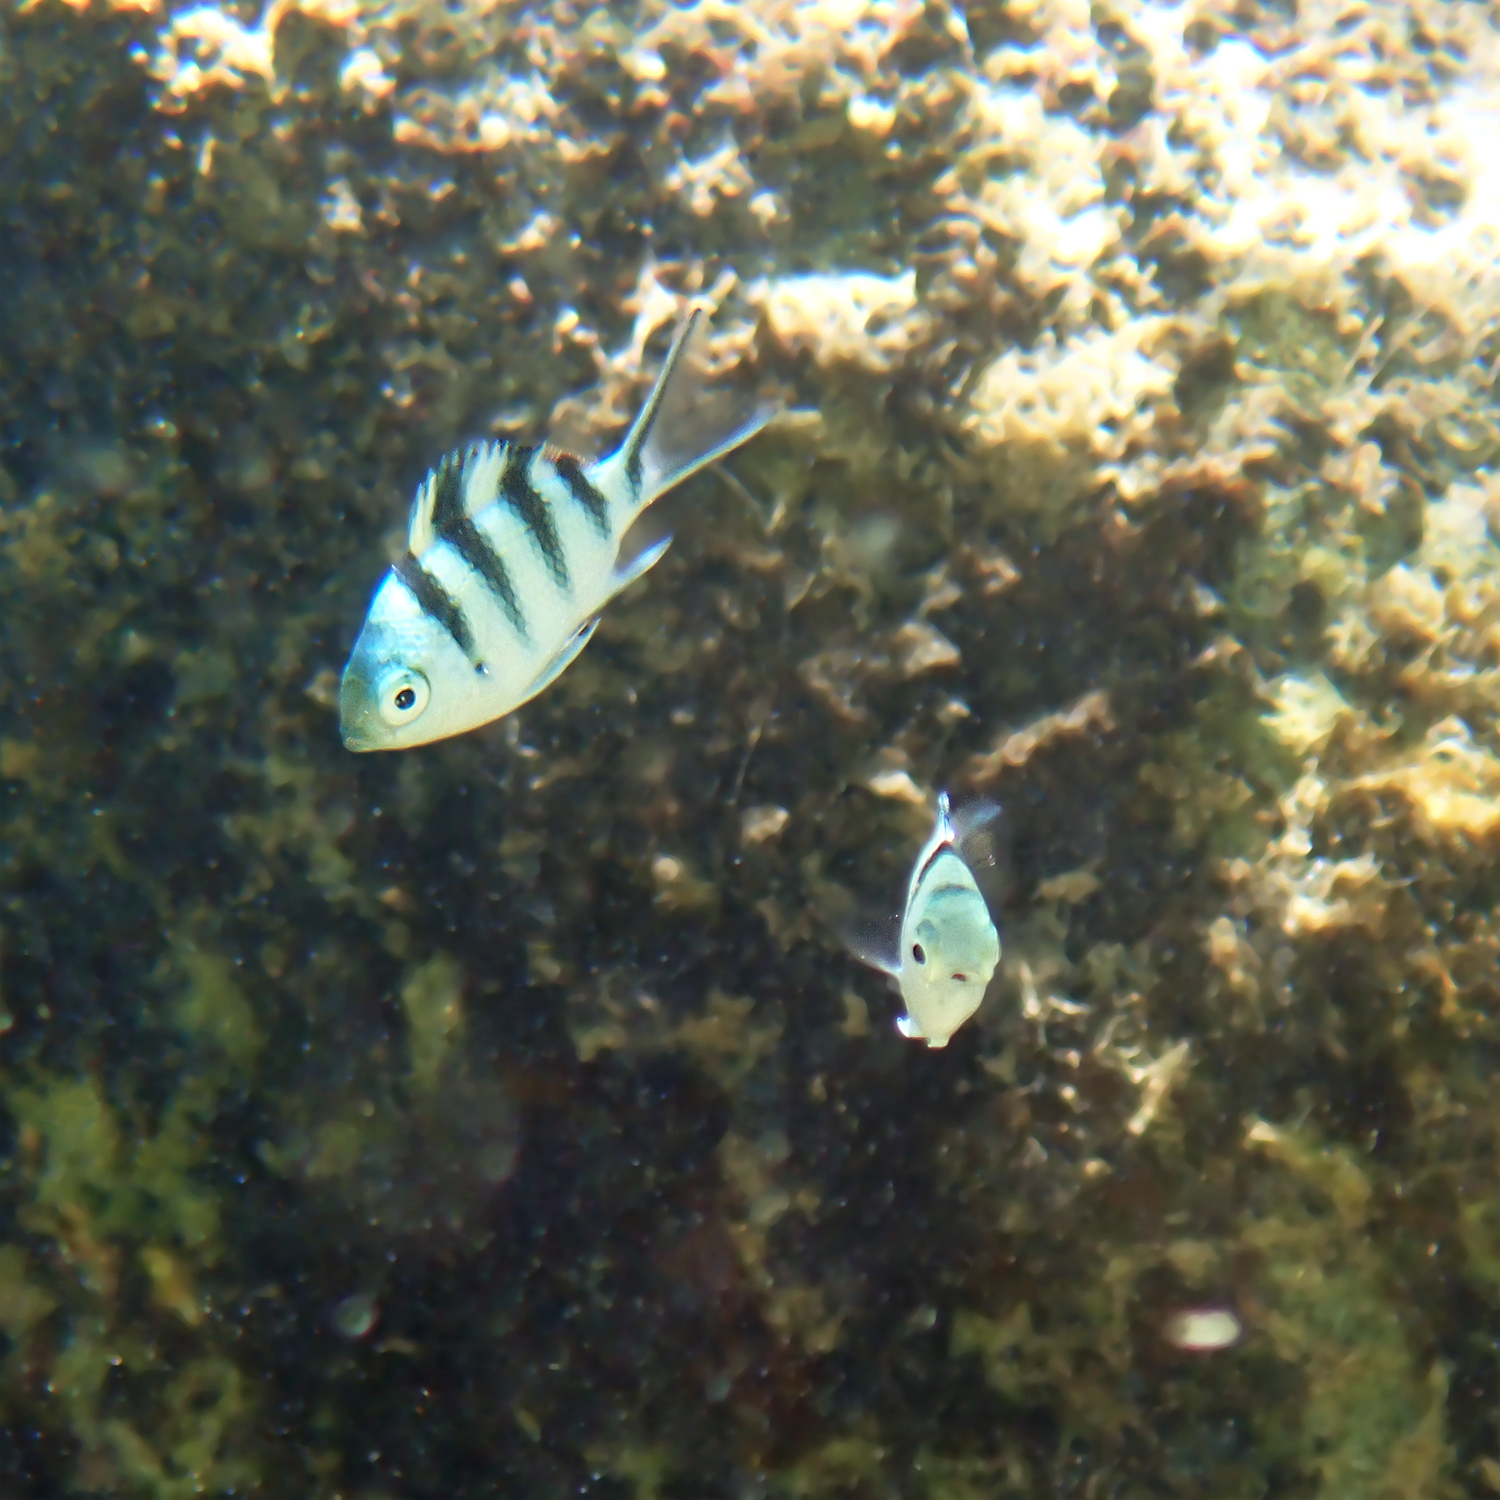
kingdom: Animalia
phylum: Chordata
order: Perciformes
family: Pomacentridae
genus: Abudefduf
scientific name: Abudefduf sexfasciatus
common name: Scissortail sergeant
